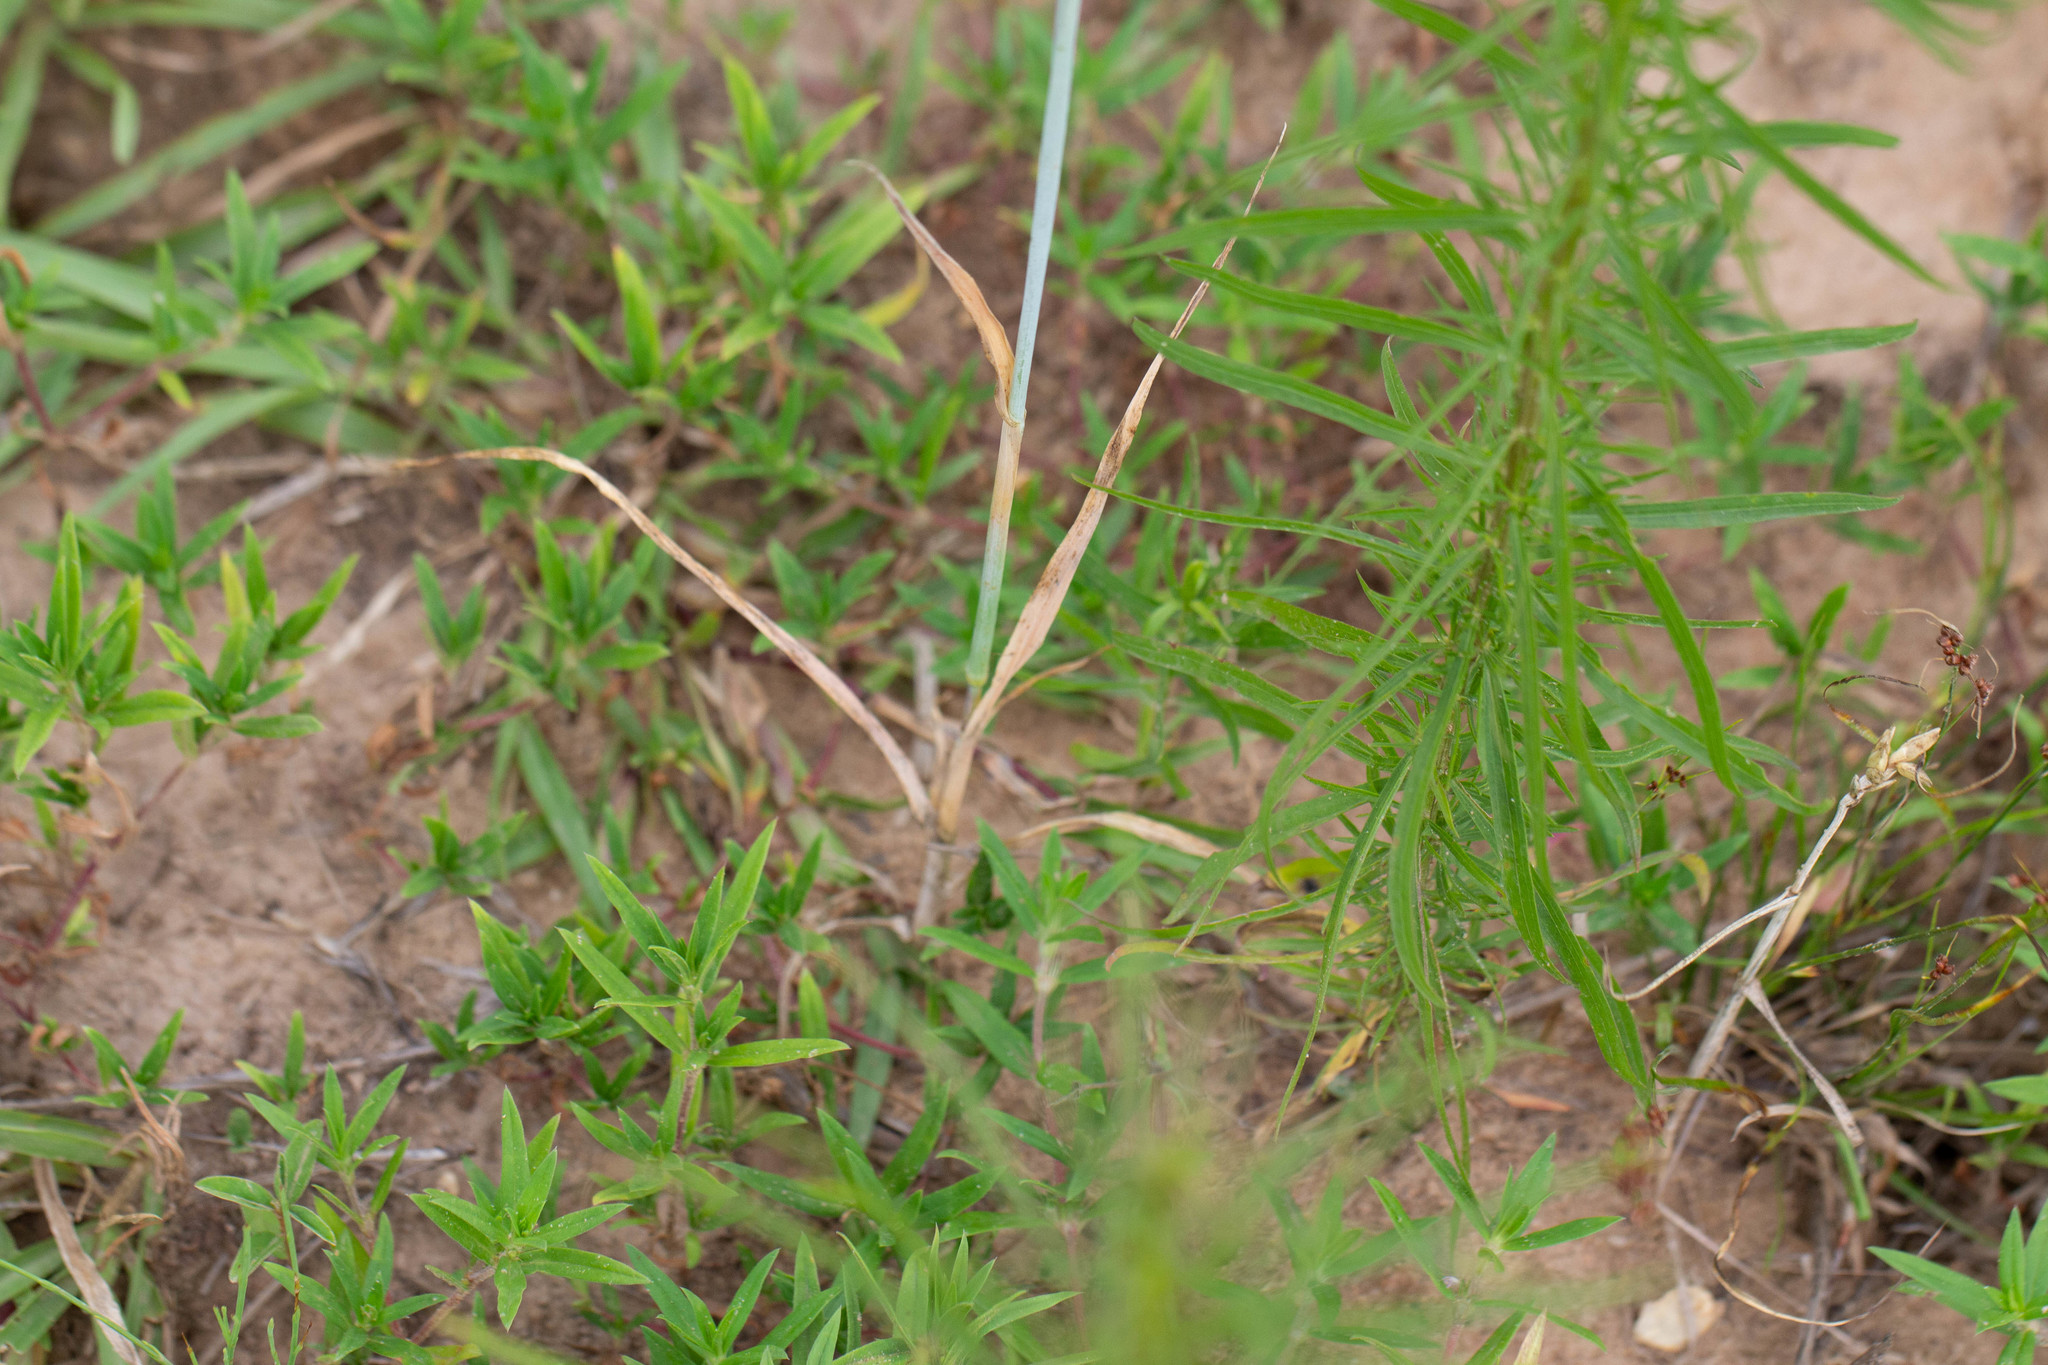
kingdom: Plantae
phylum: Tracheophyta
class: Liliopsida
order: Poales
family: Poaceae
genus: Avena
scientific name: Avena sativa
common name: Oat
